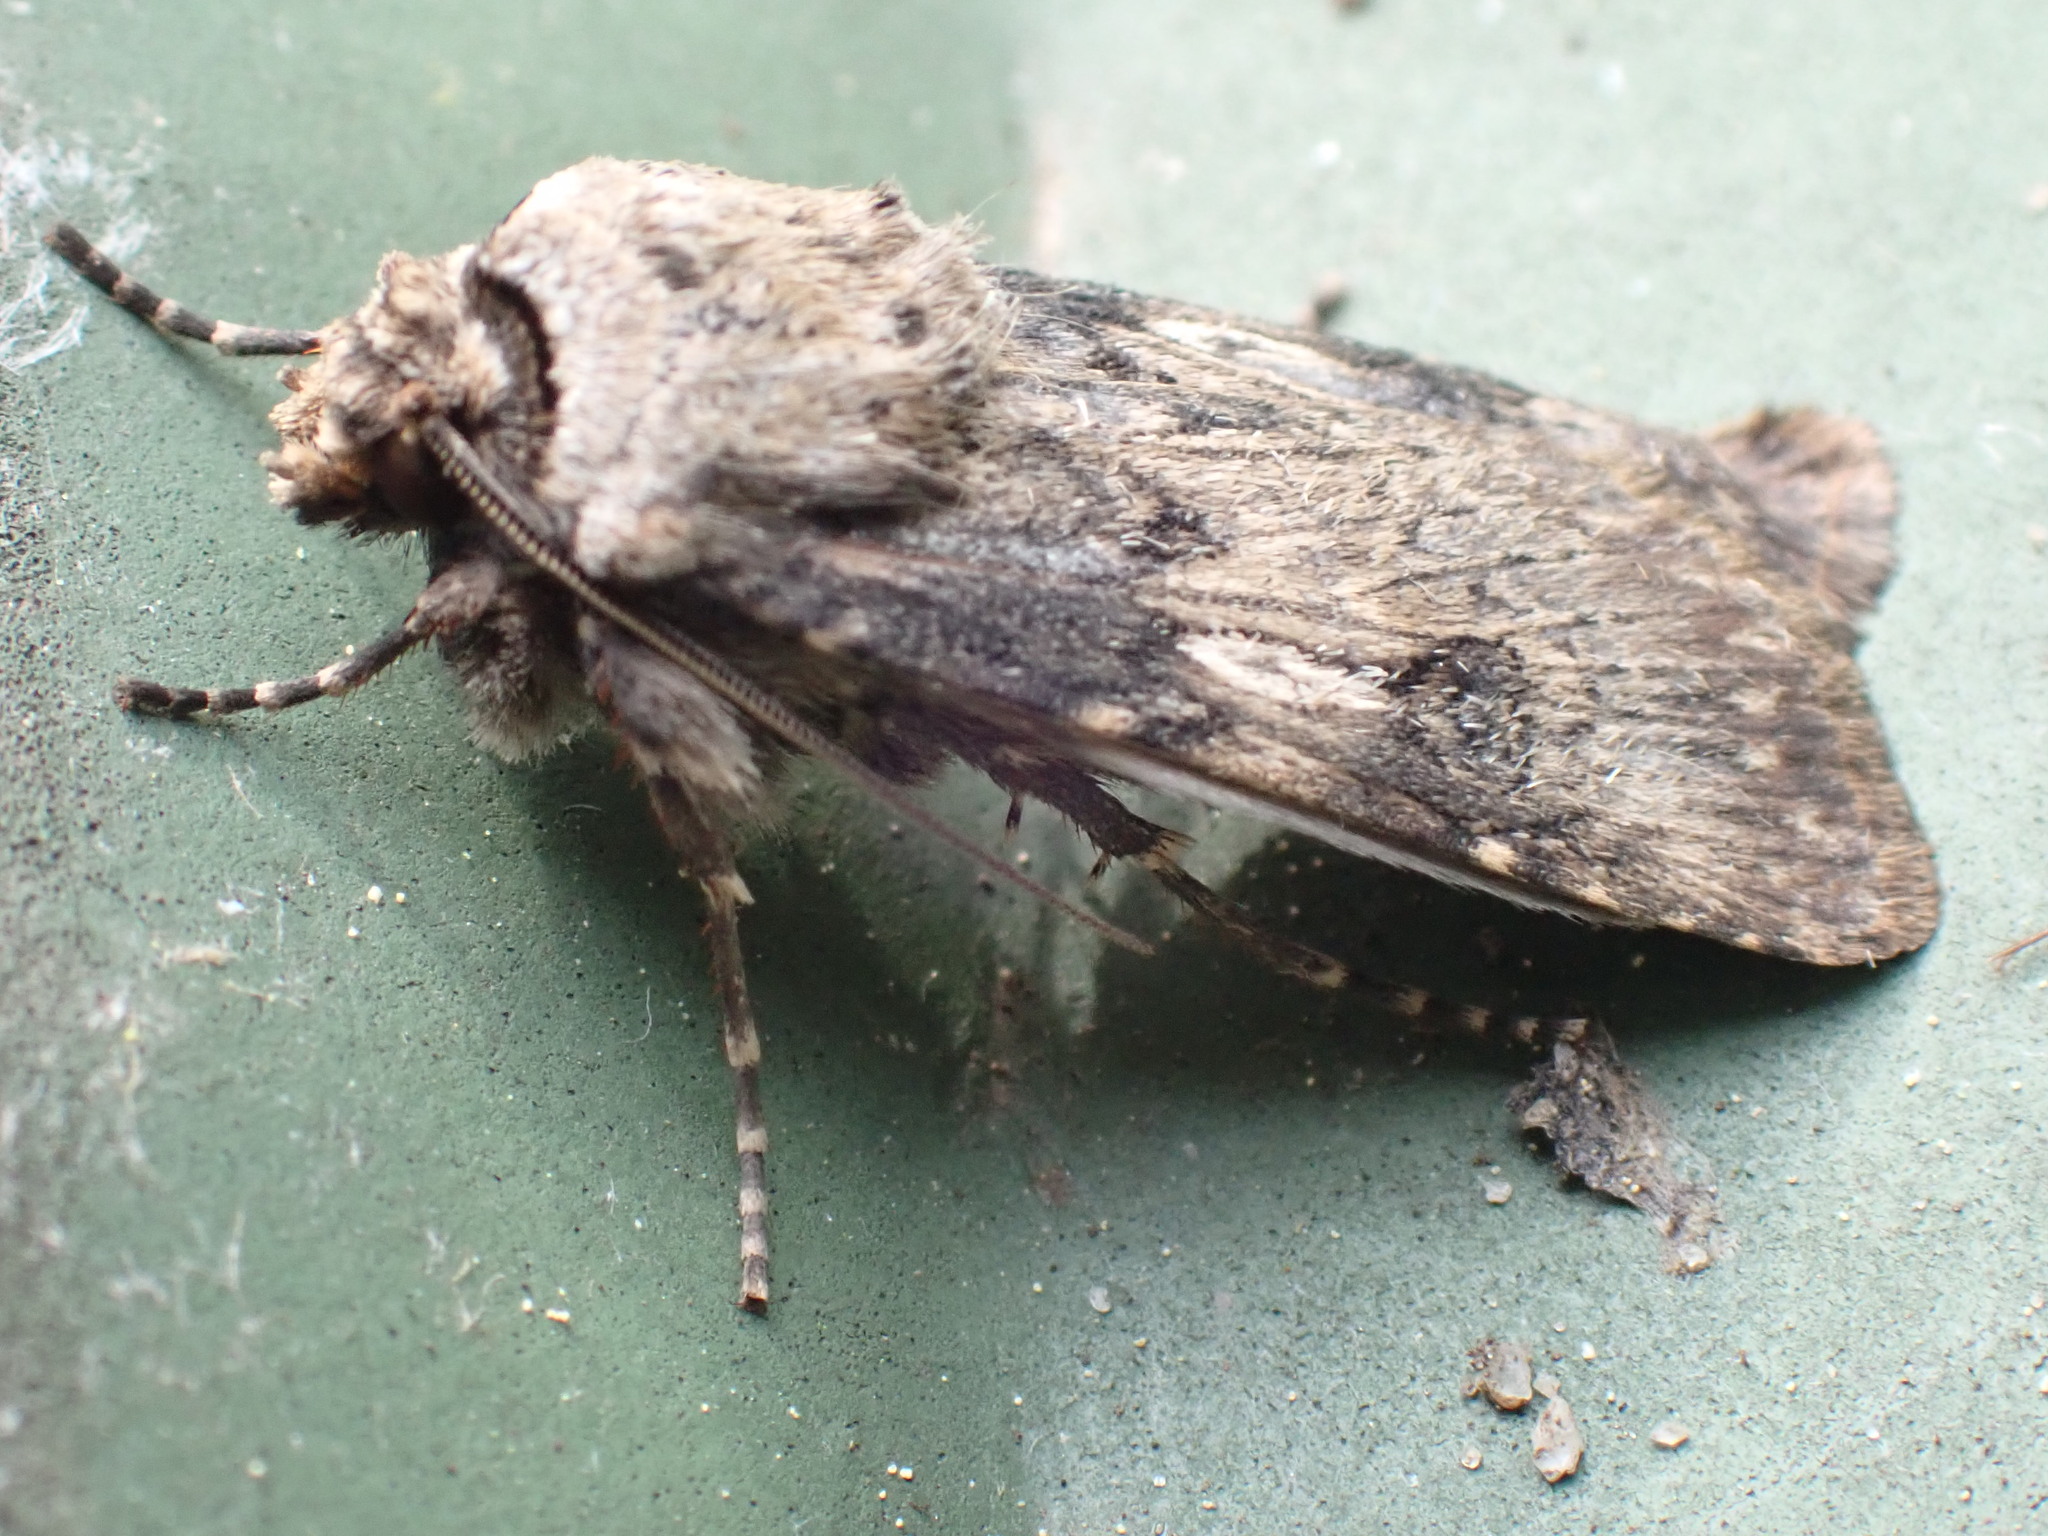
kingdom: Animalia
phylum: Arthropoda
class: Insecta
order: Lepidoptera
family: Noctuidae
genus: Agrotis
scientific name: Agrotis puta
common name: Shuttle-shaped dart
